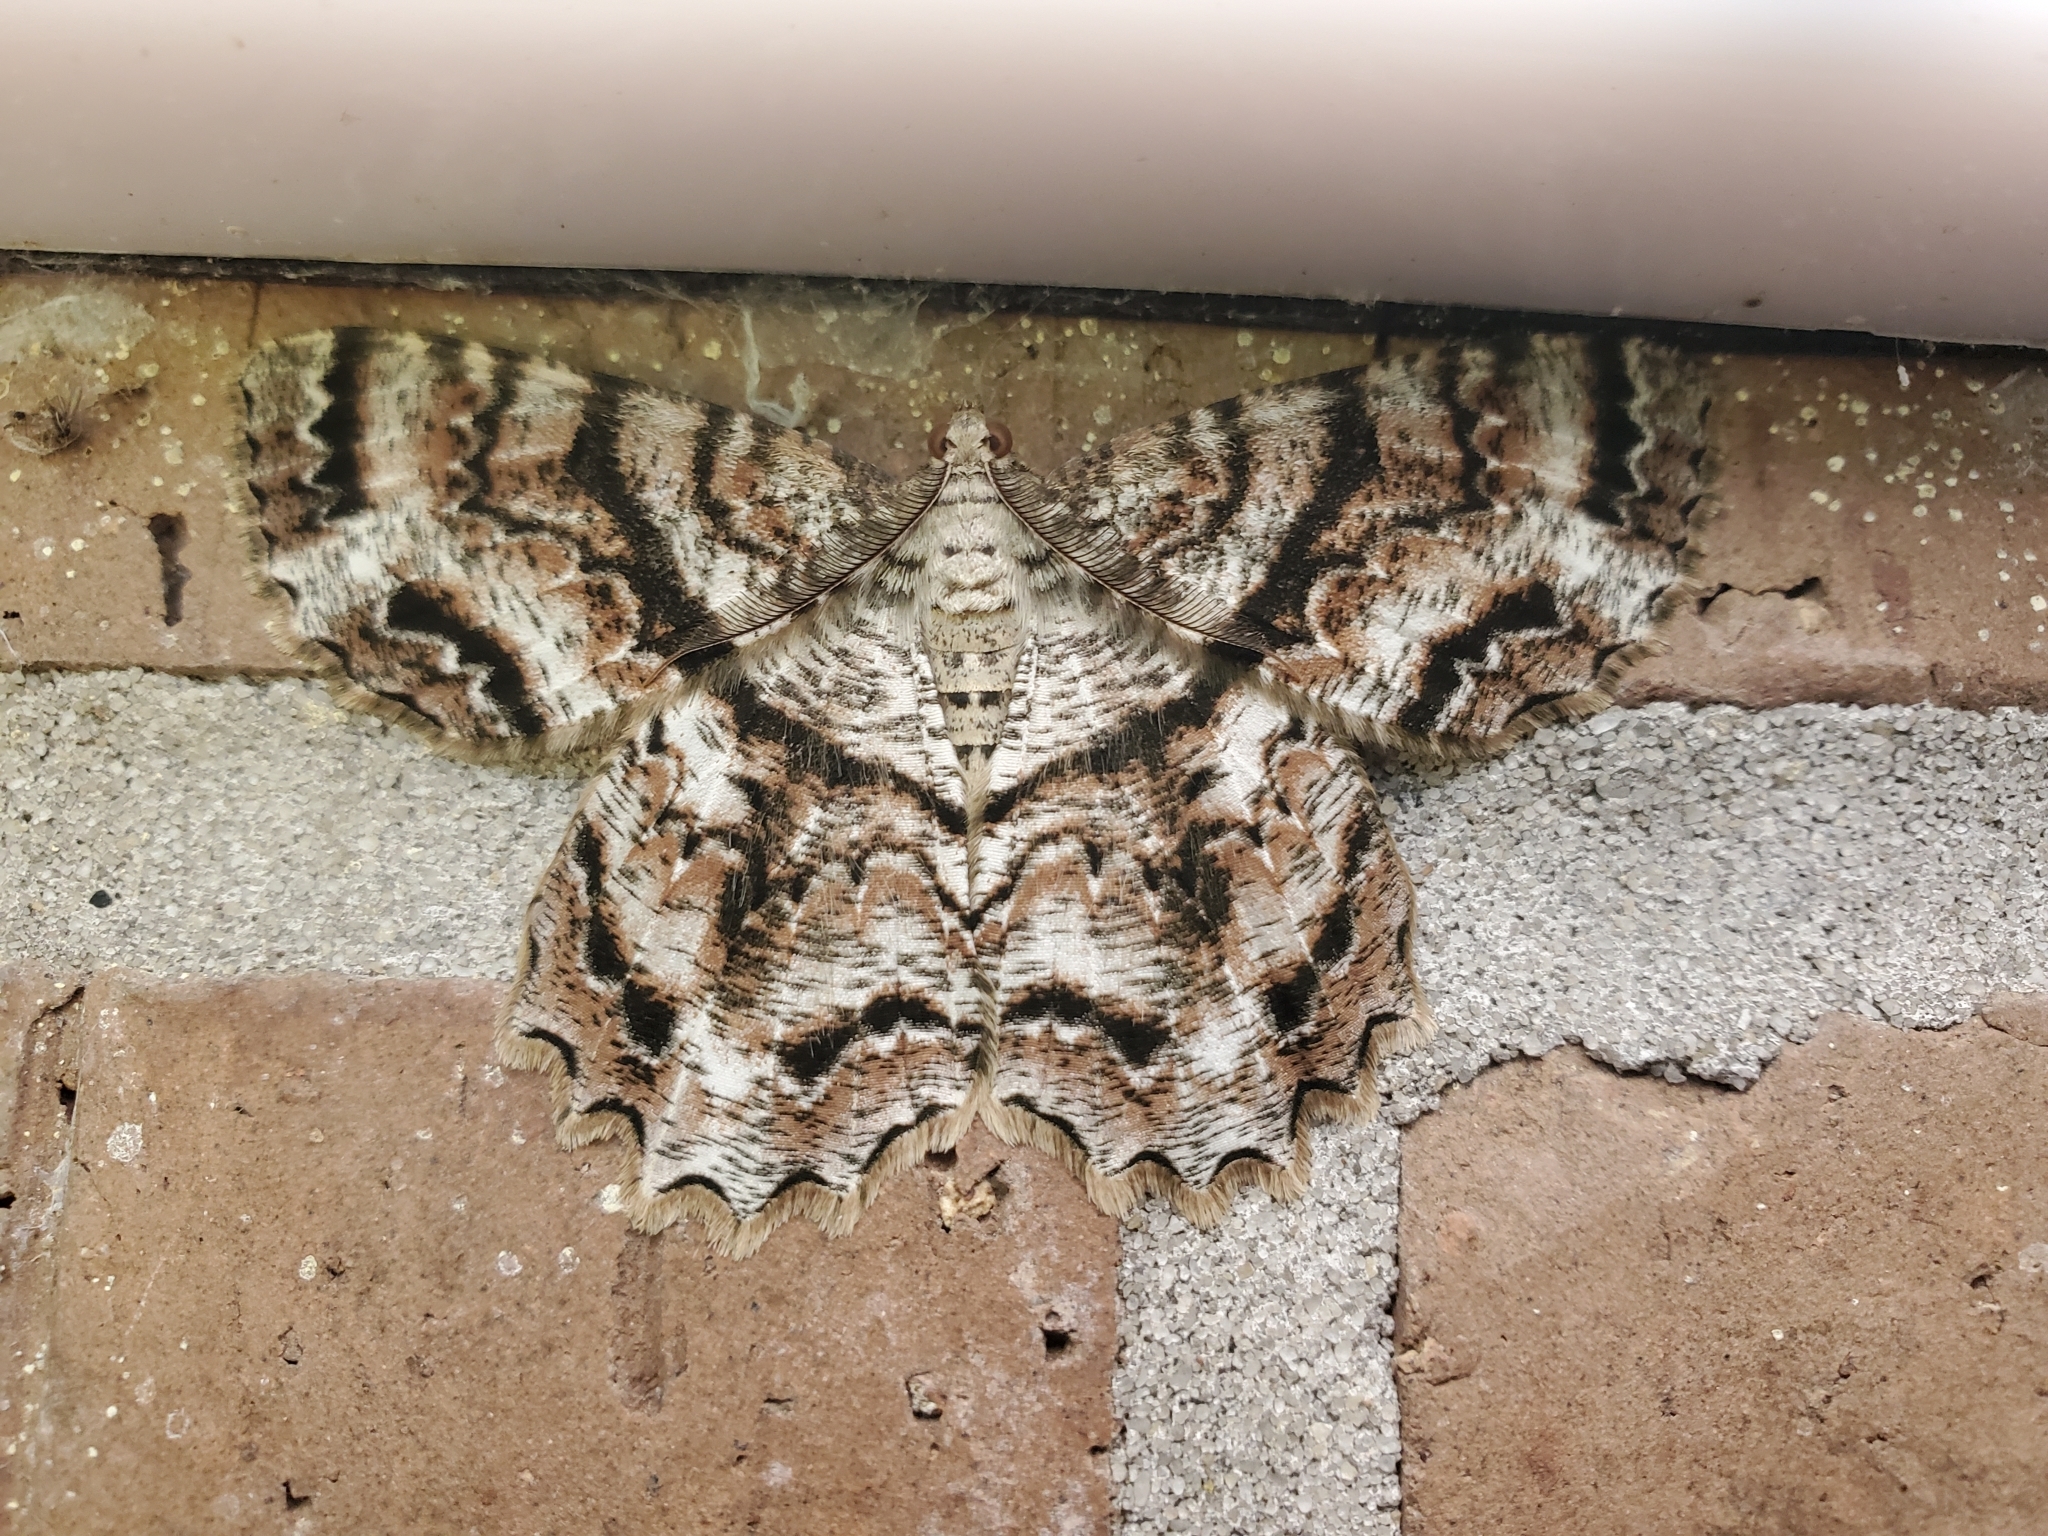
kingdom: Animalia
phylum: Arthropoda
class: Insecta
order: Lepidoptera
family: Geometridae
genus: Epimecis
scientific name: Epimecis hortaria
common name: Tulip-tree beauty
